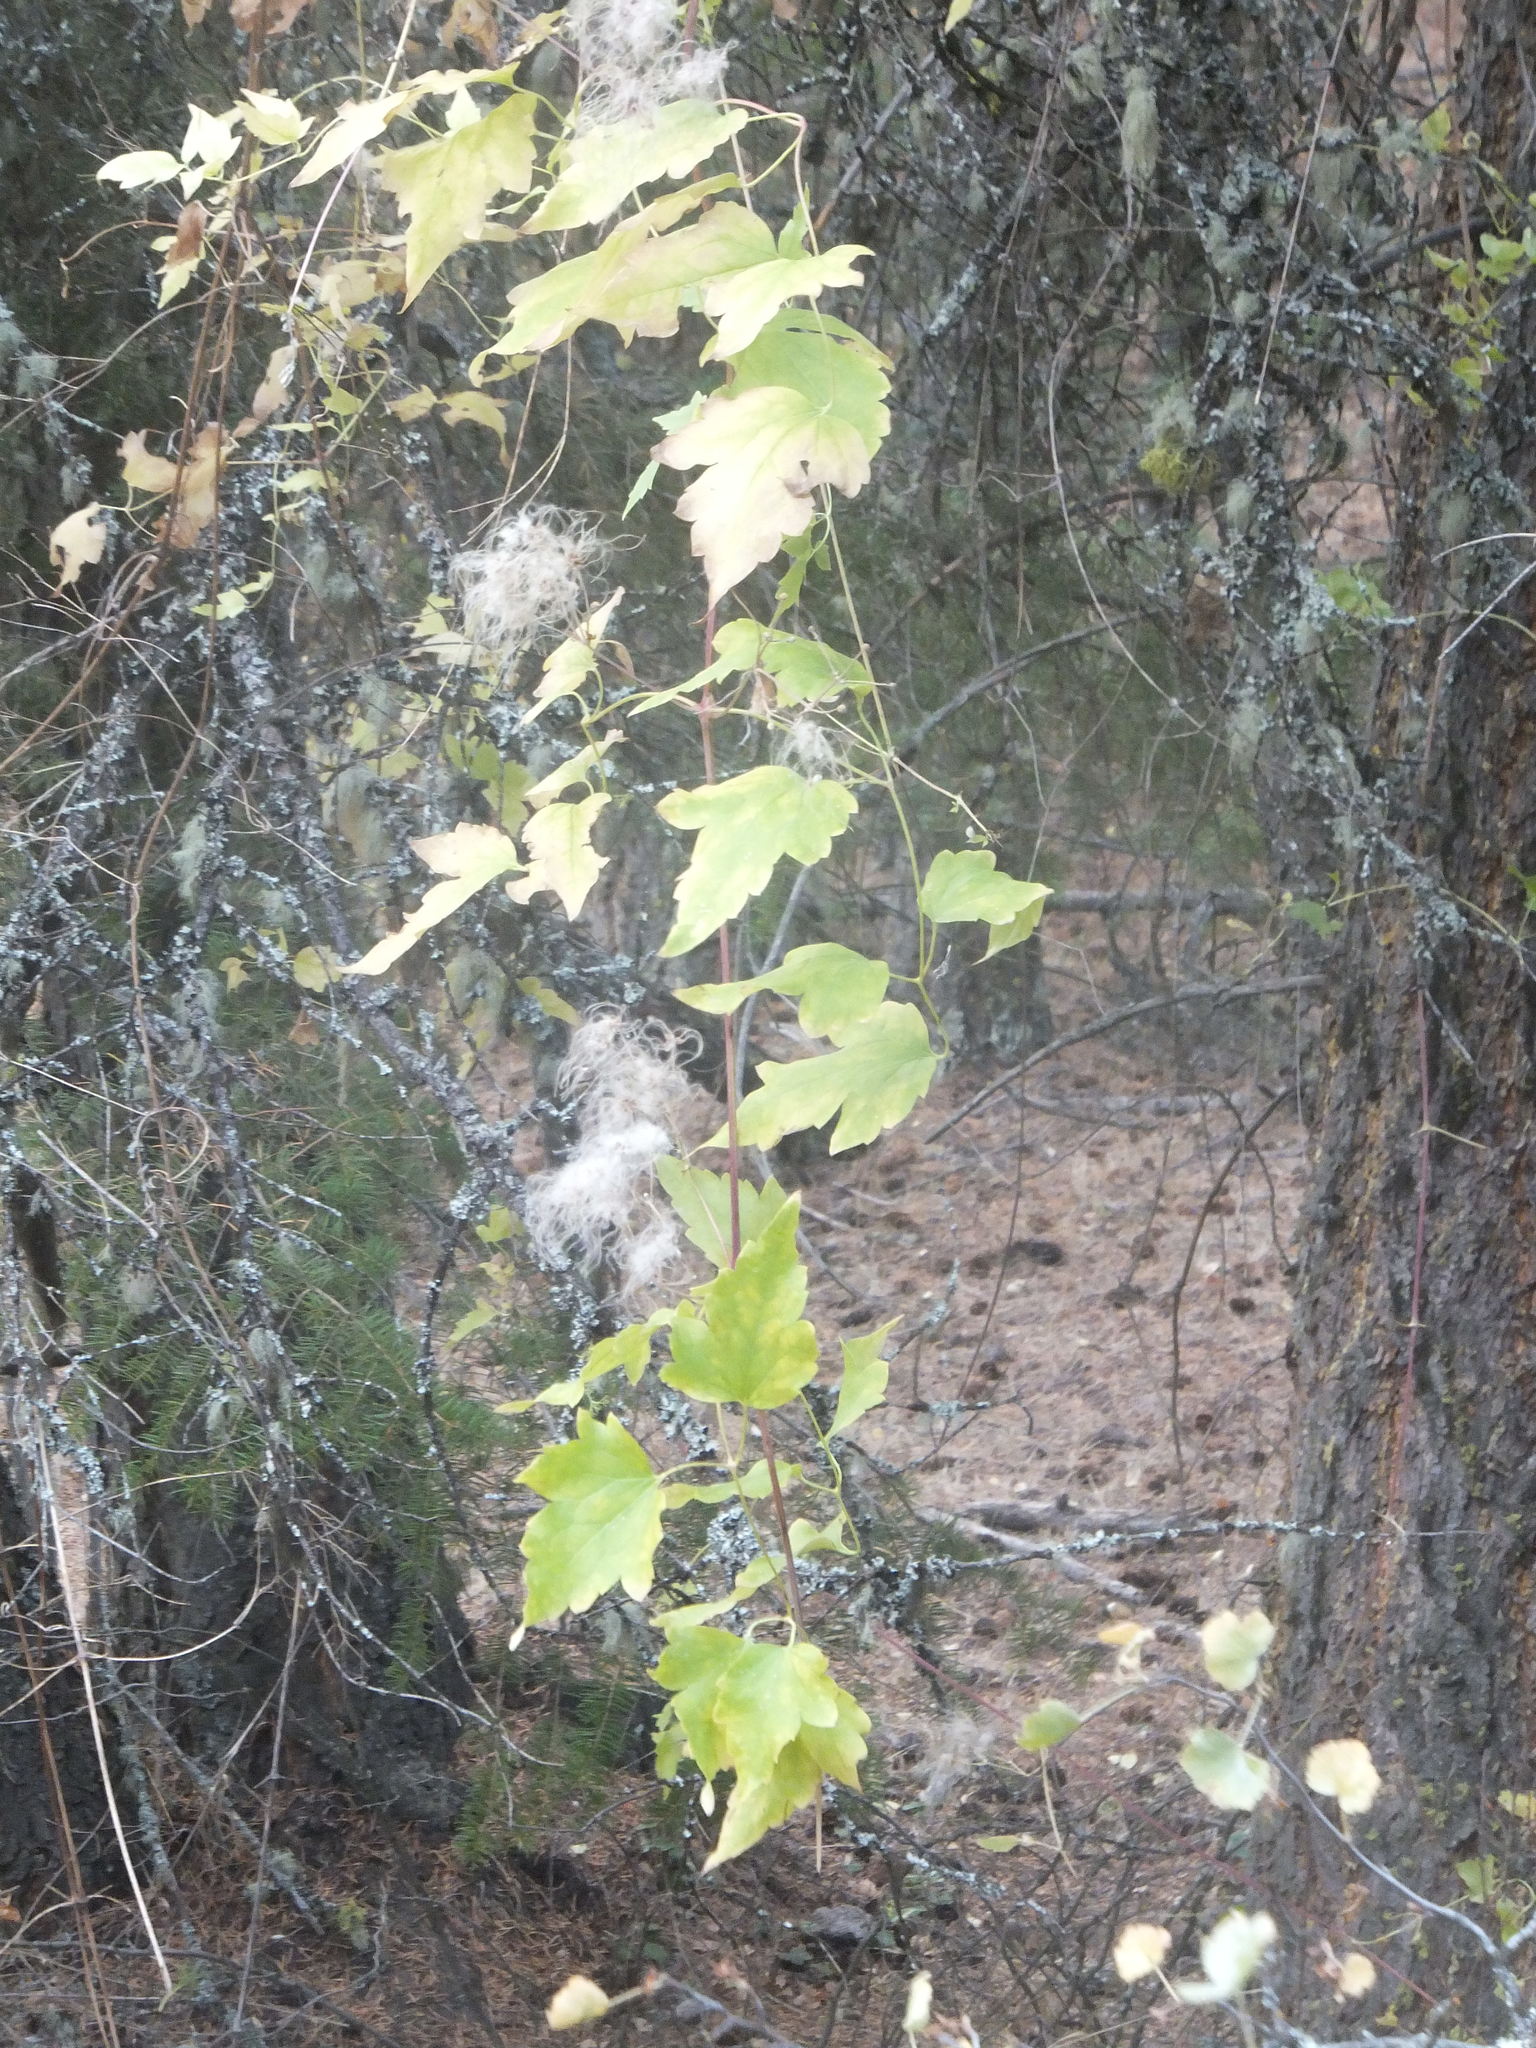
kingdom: Plantae
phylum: Tracheophyta
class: Magnoliopsida
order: Ranunculales
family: Ranunculaceae
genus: Clematis
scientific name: Clematis ligusticifolia
